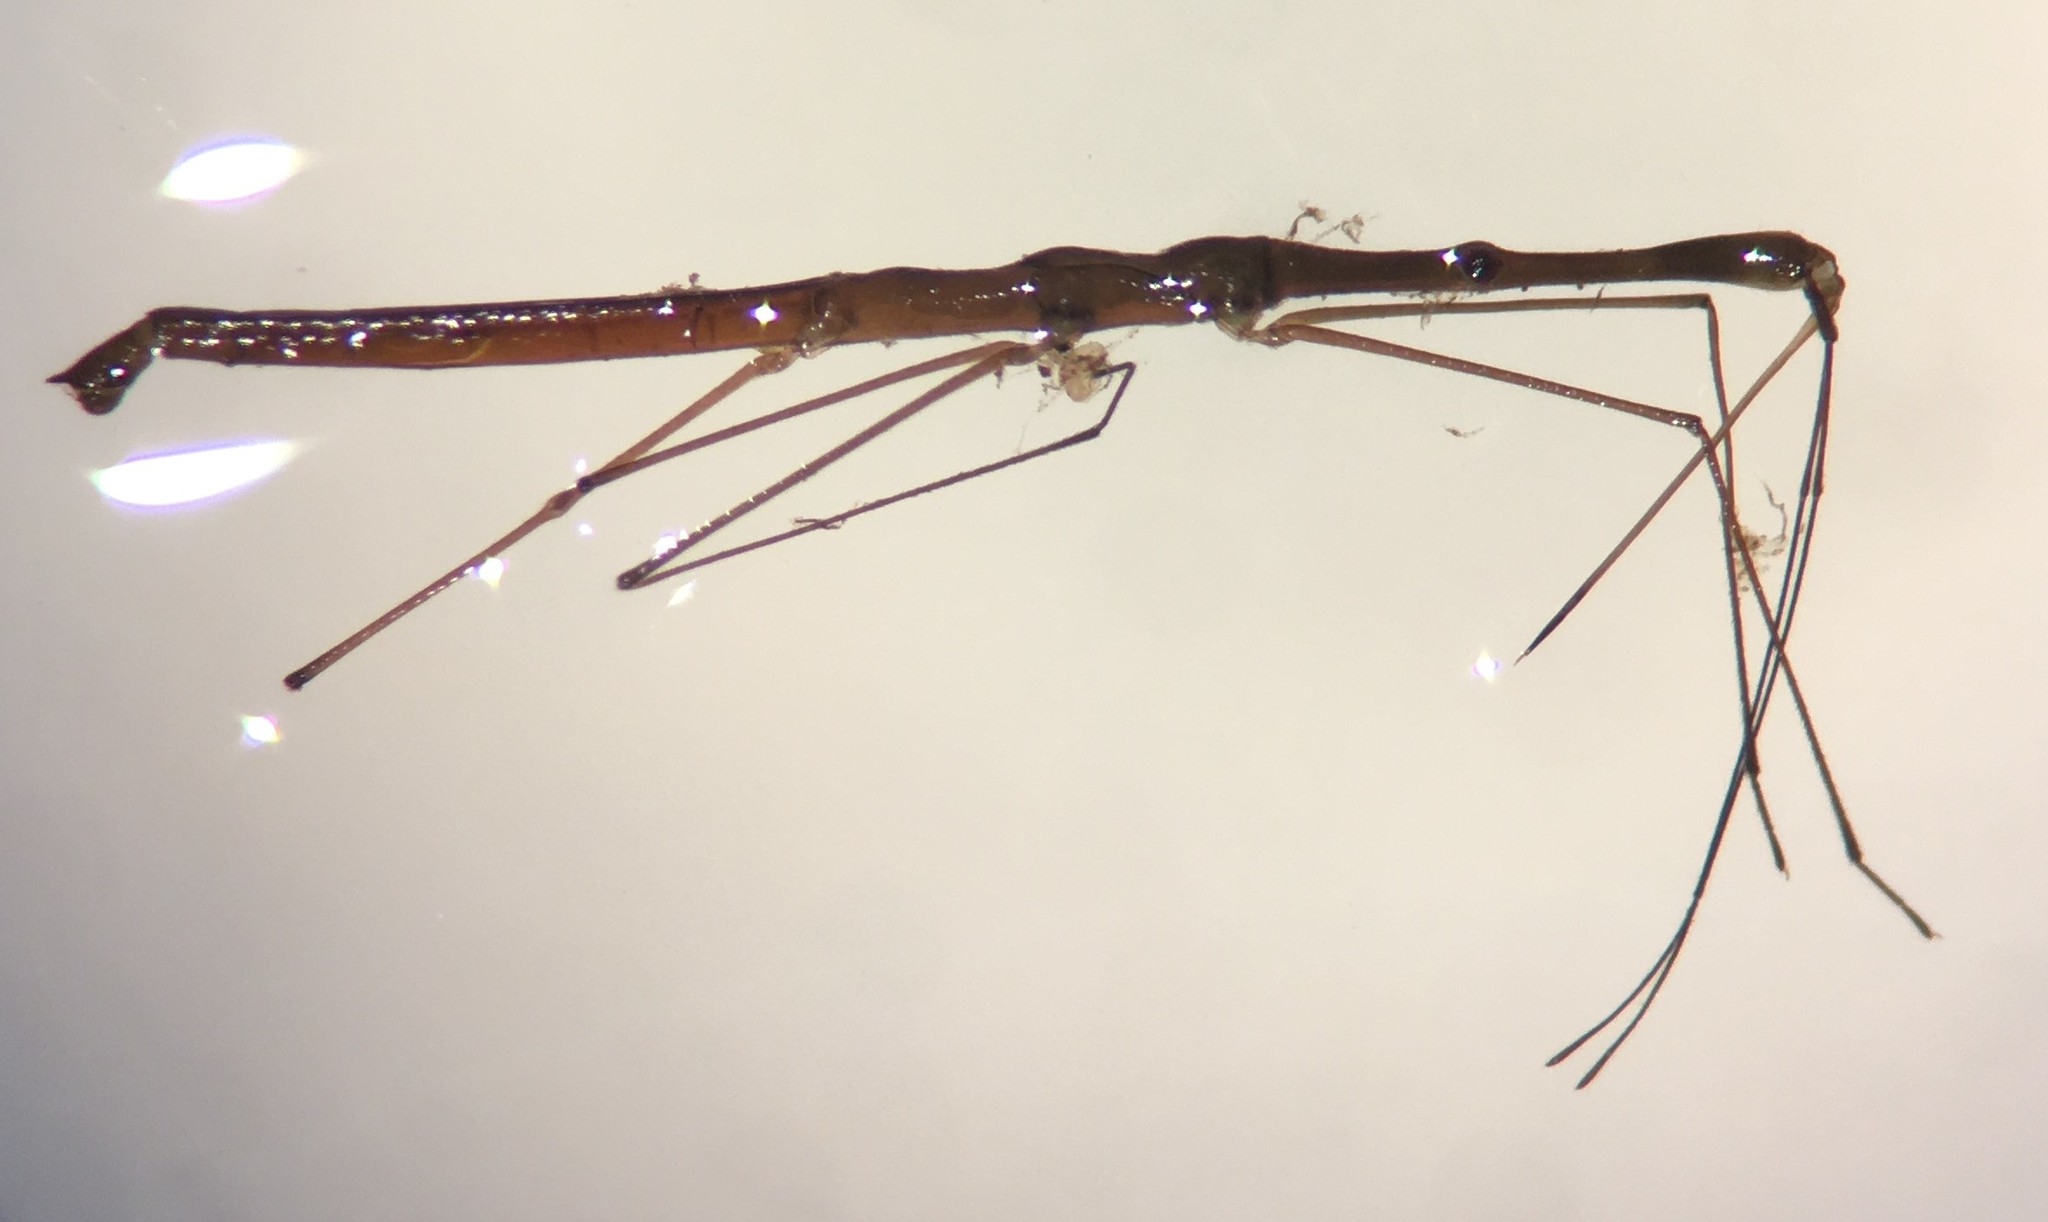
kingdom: Animalia
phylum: Arthropoda
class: Insecta
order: Hemiptera
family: Hydrometridae
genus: Hydrometra
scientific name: Hydrometra barei
